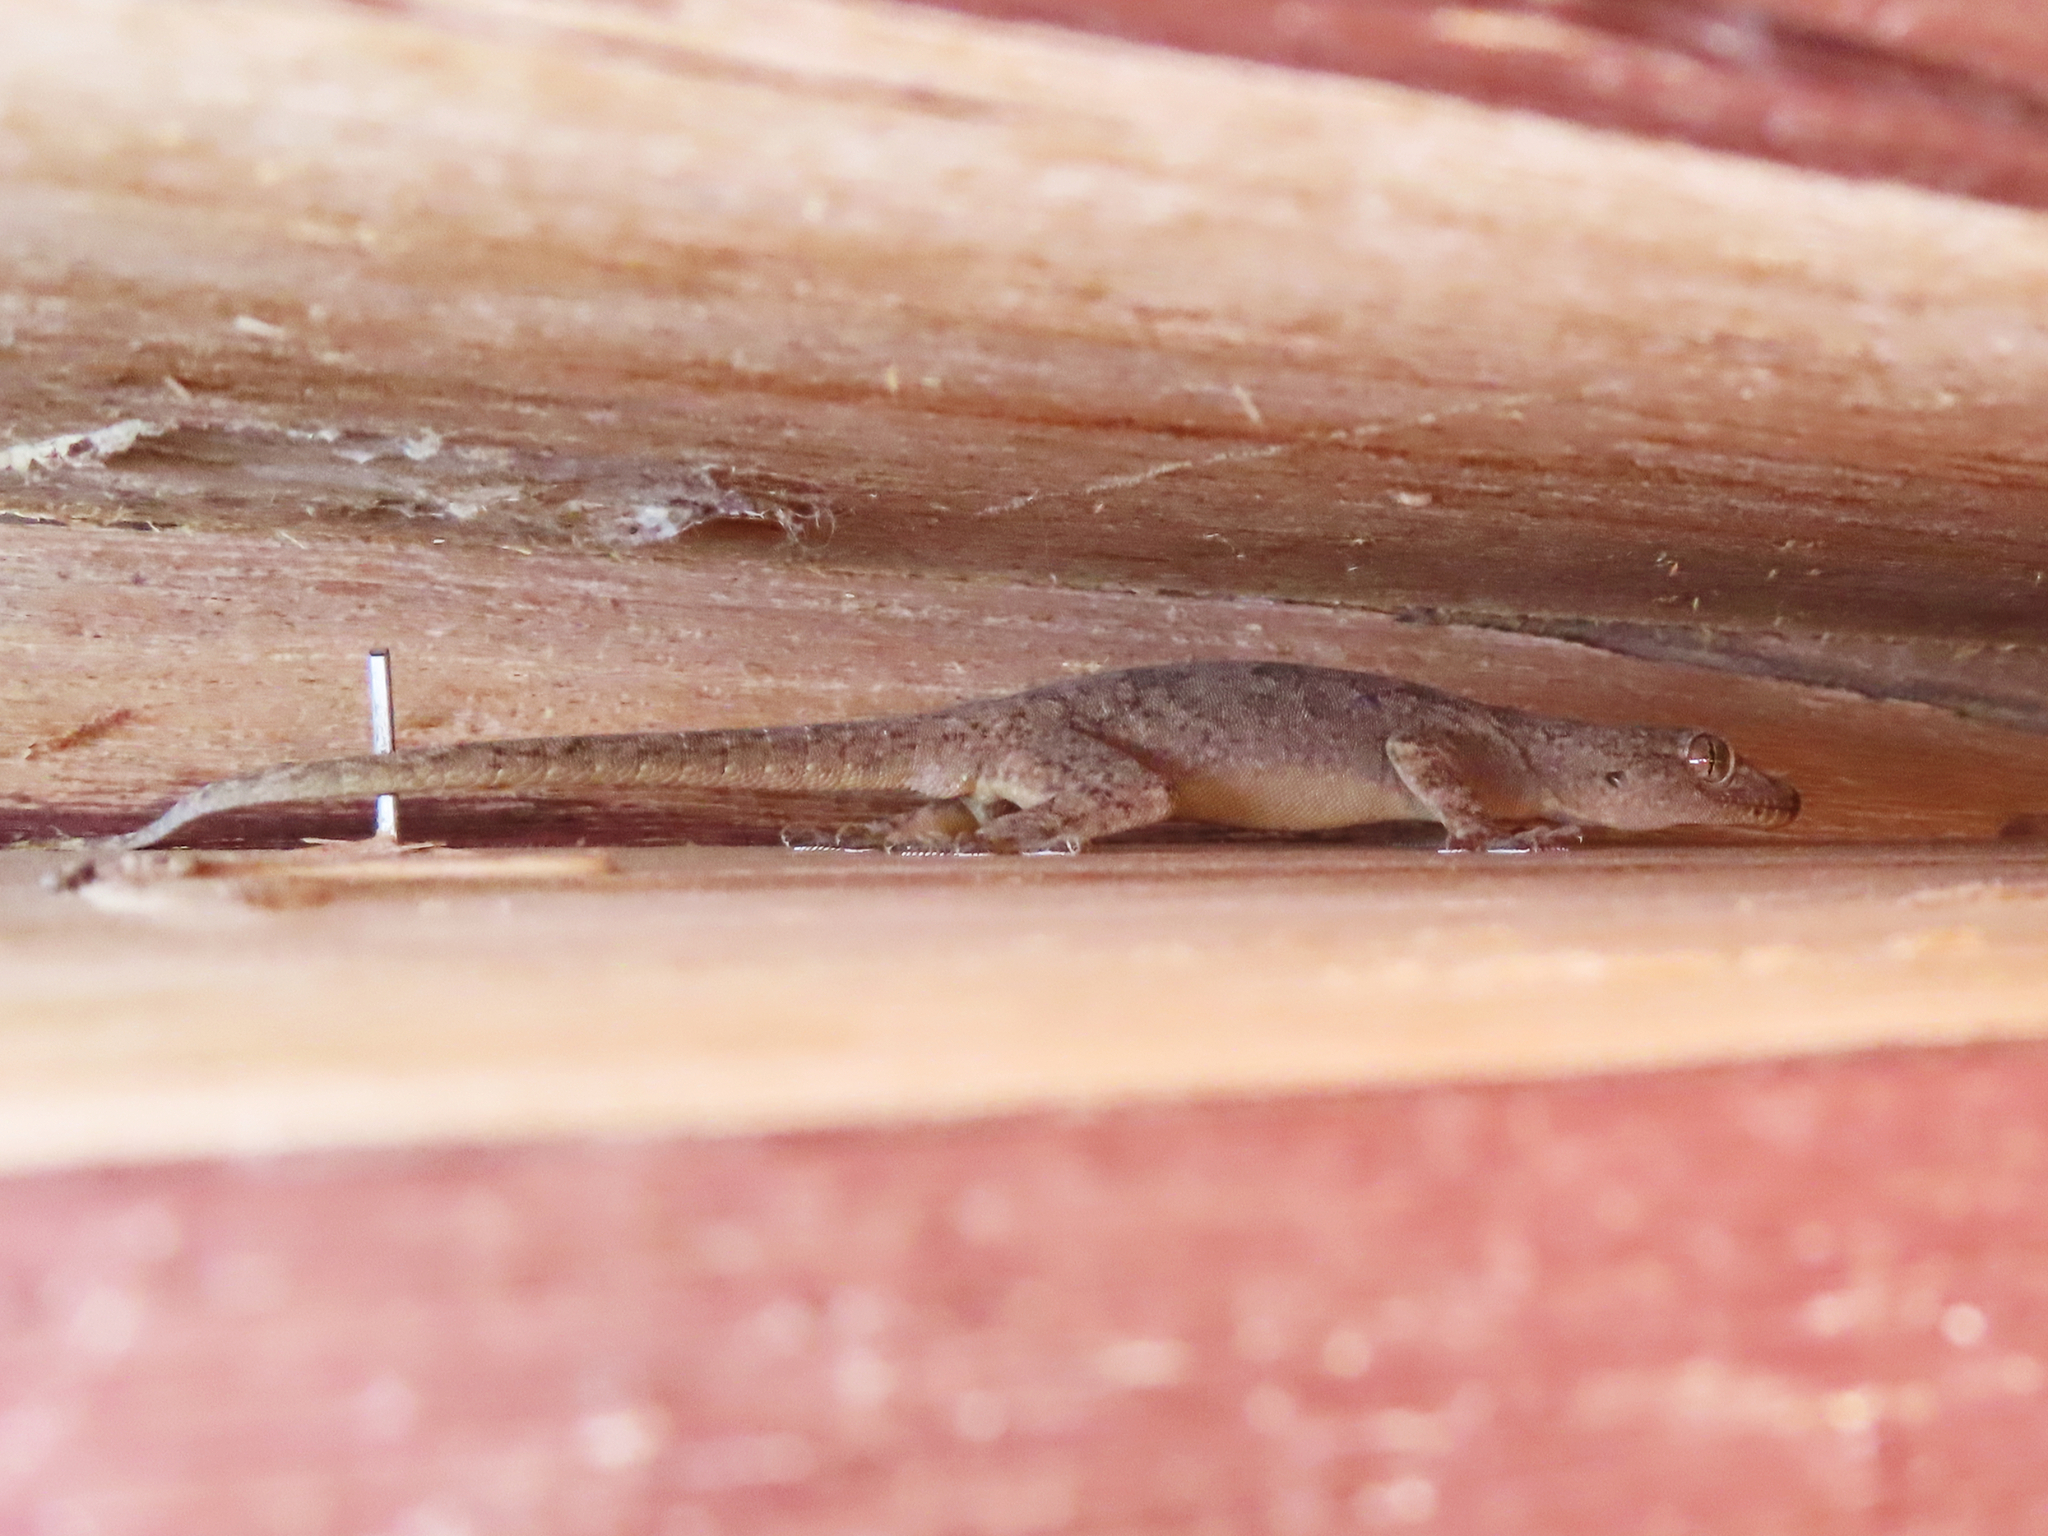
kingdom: Animalia
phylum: Chordata
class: Squamata
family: Gekkonidae
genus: Hemidactylus
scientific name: Hemidactylus flaviviridis
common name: Northern house gecko
